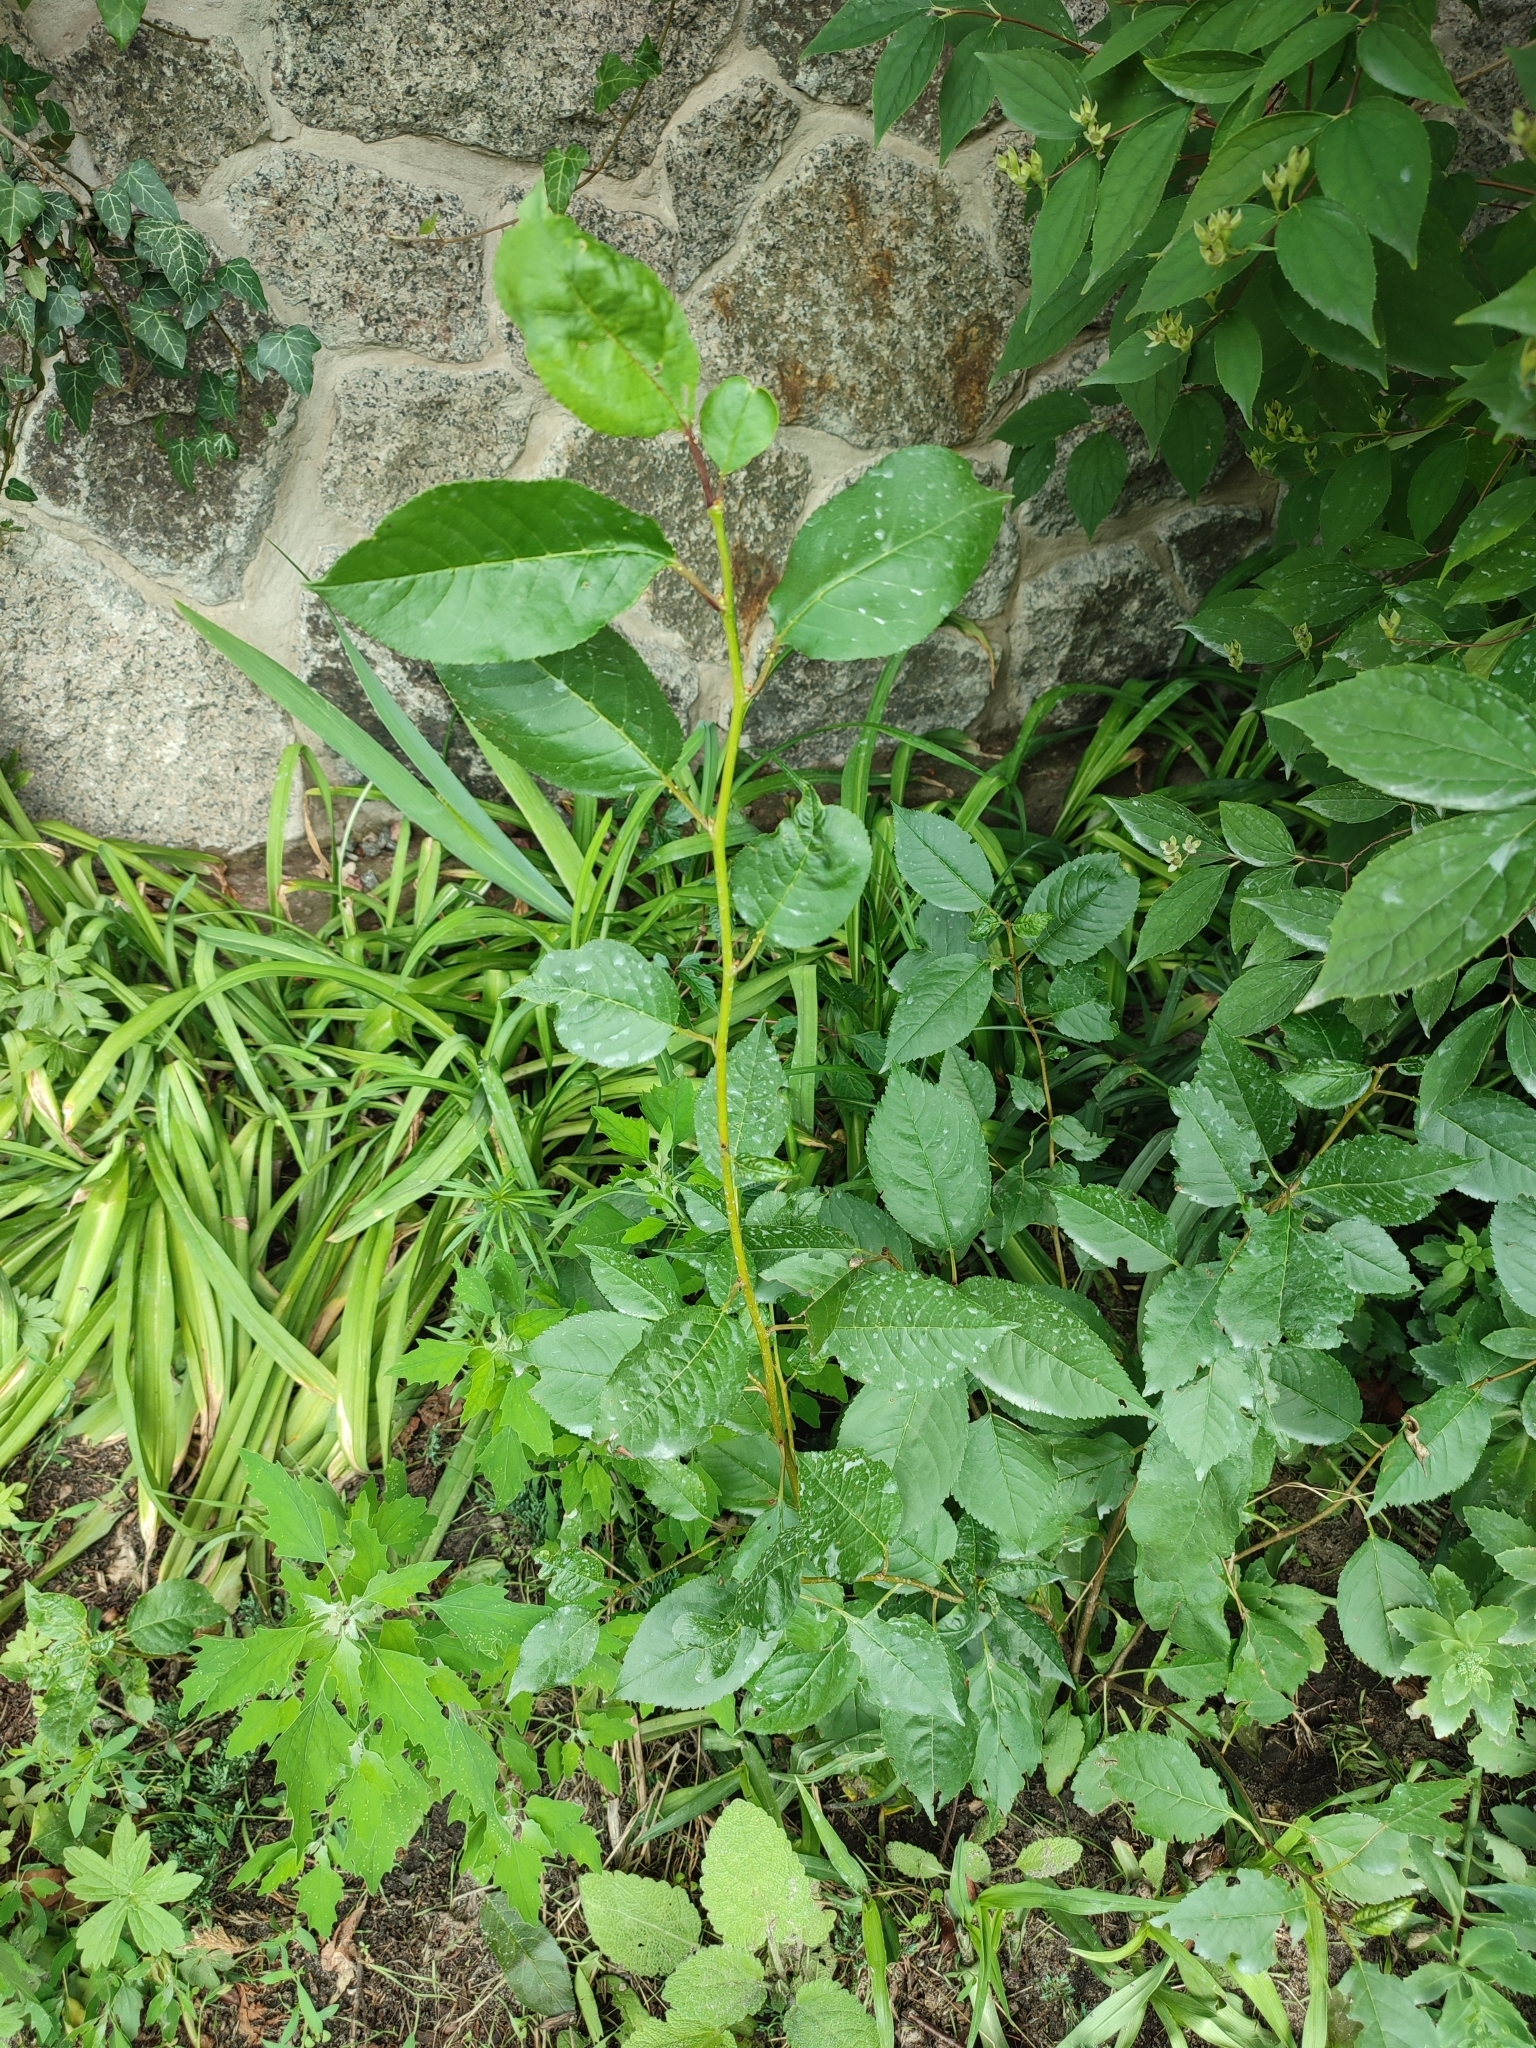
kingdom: Plantae
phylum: Tracheophyta
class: Magnoliopsida
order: Rosales
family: Rosaceae
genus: Prunus
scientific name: Prunus cerasus
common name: Morello cherry
